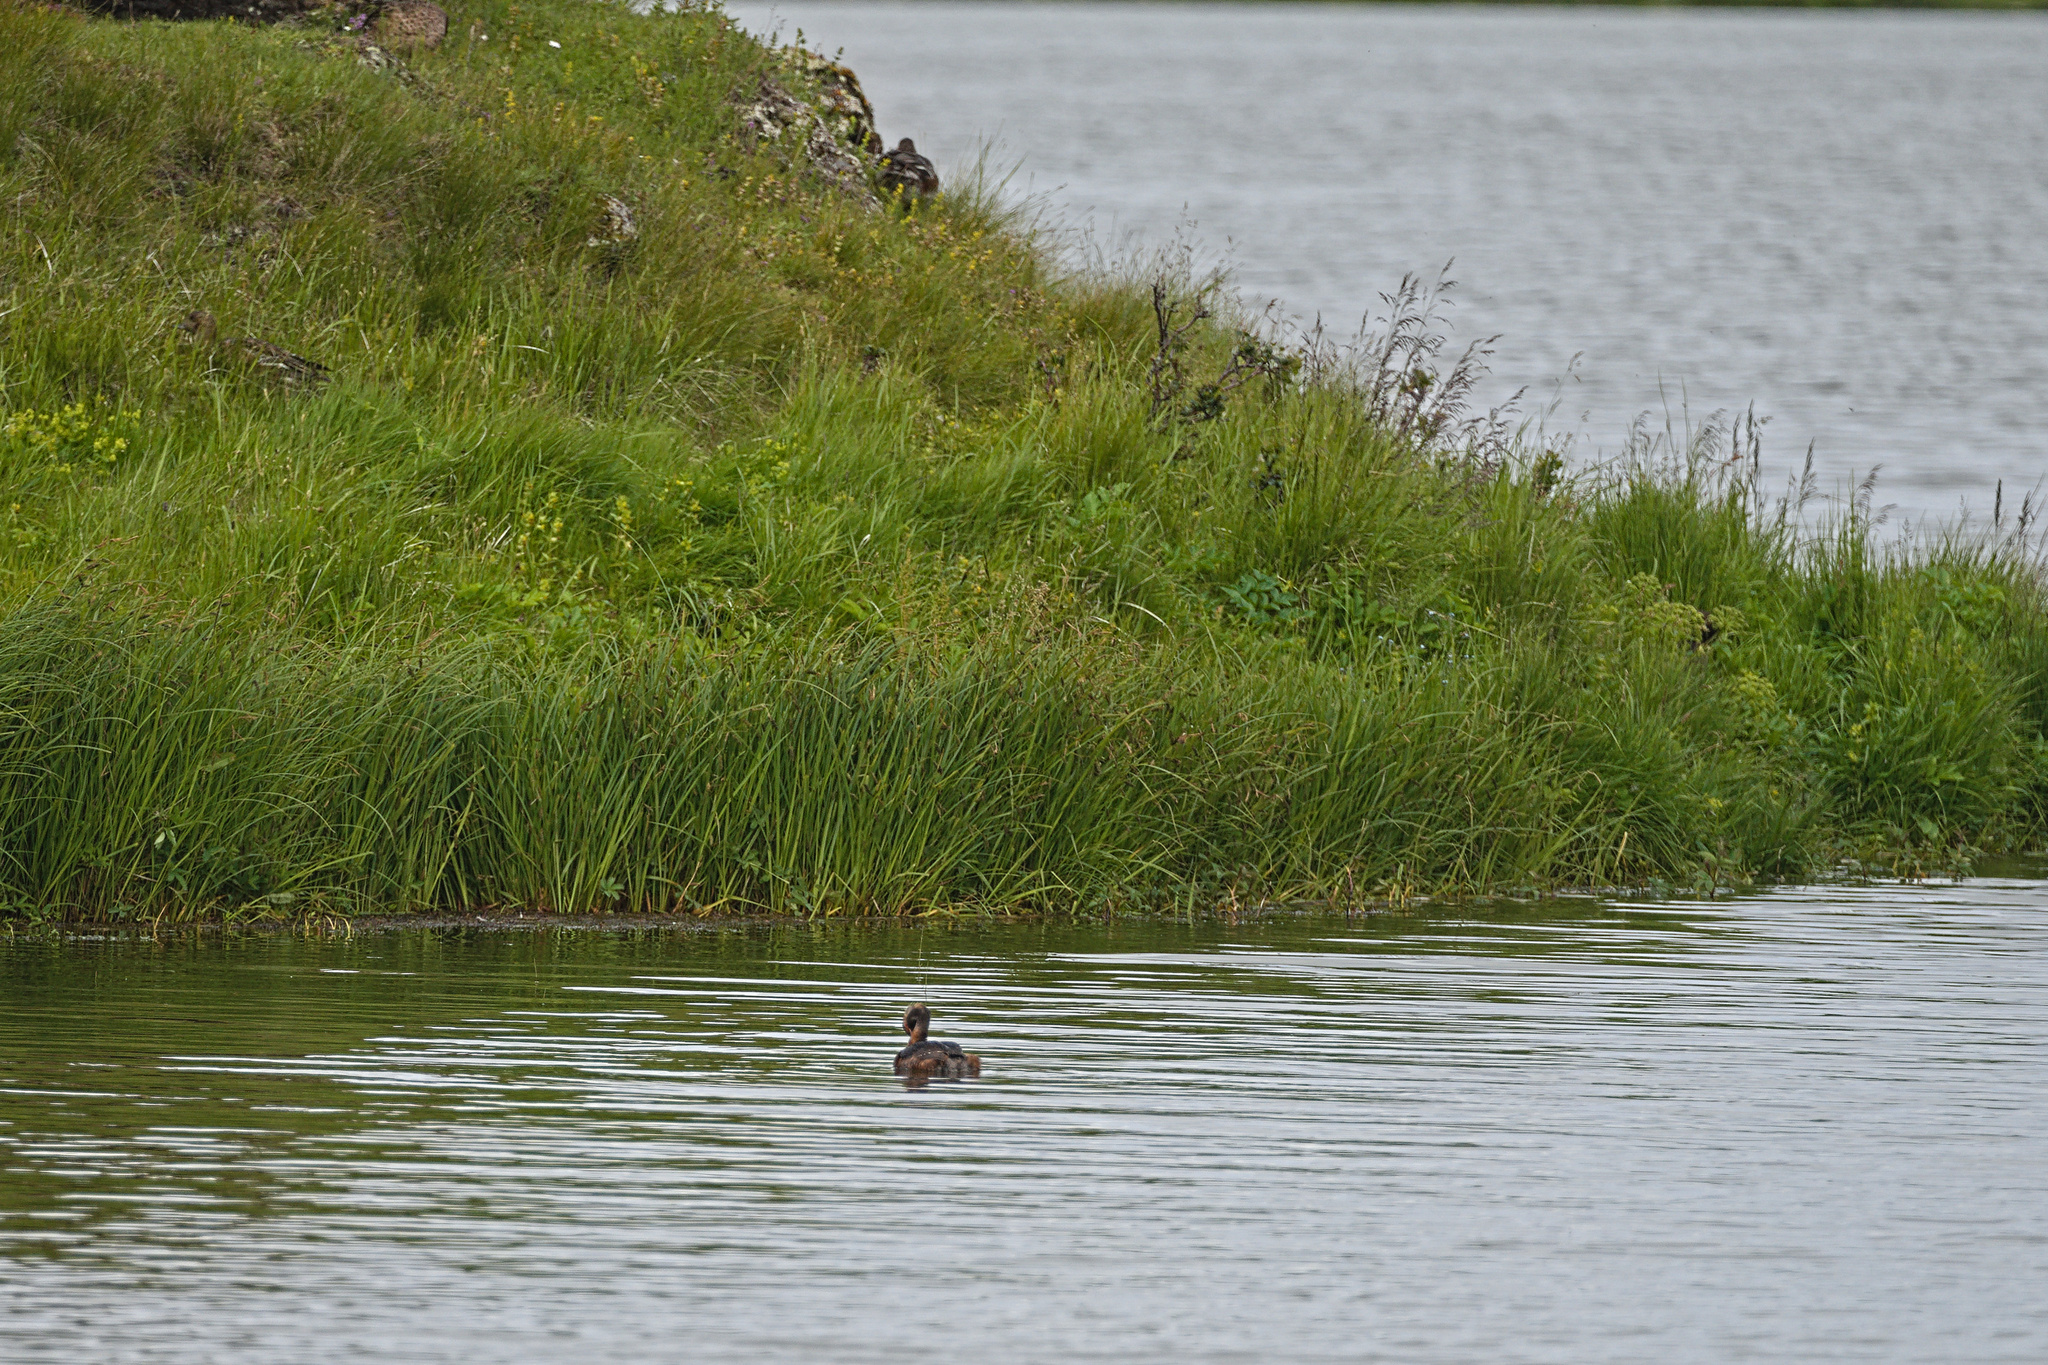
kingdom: Animalia
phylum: Chordata
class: Aves
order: Podicipediformes
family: Podicipedidae
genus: Podiceps
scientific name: Podiceps auritus
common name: Horned grebe
